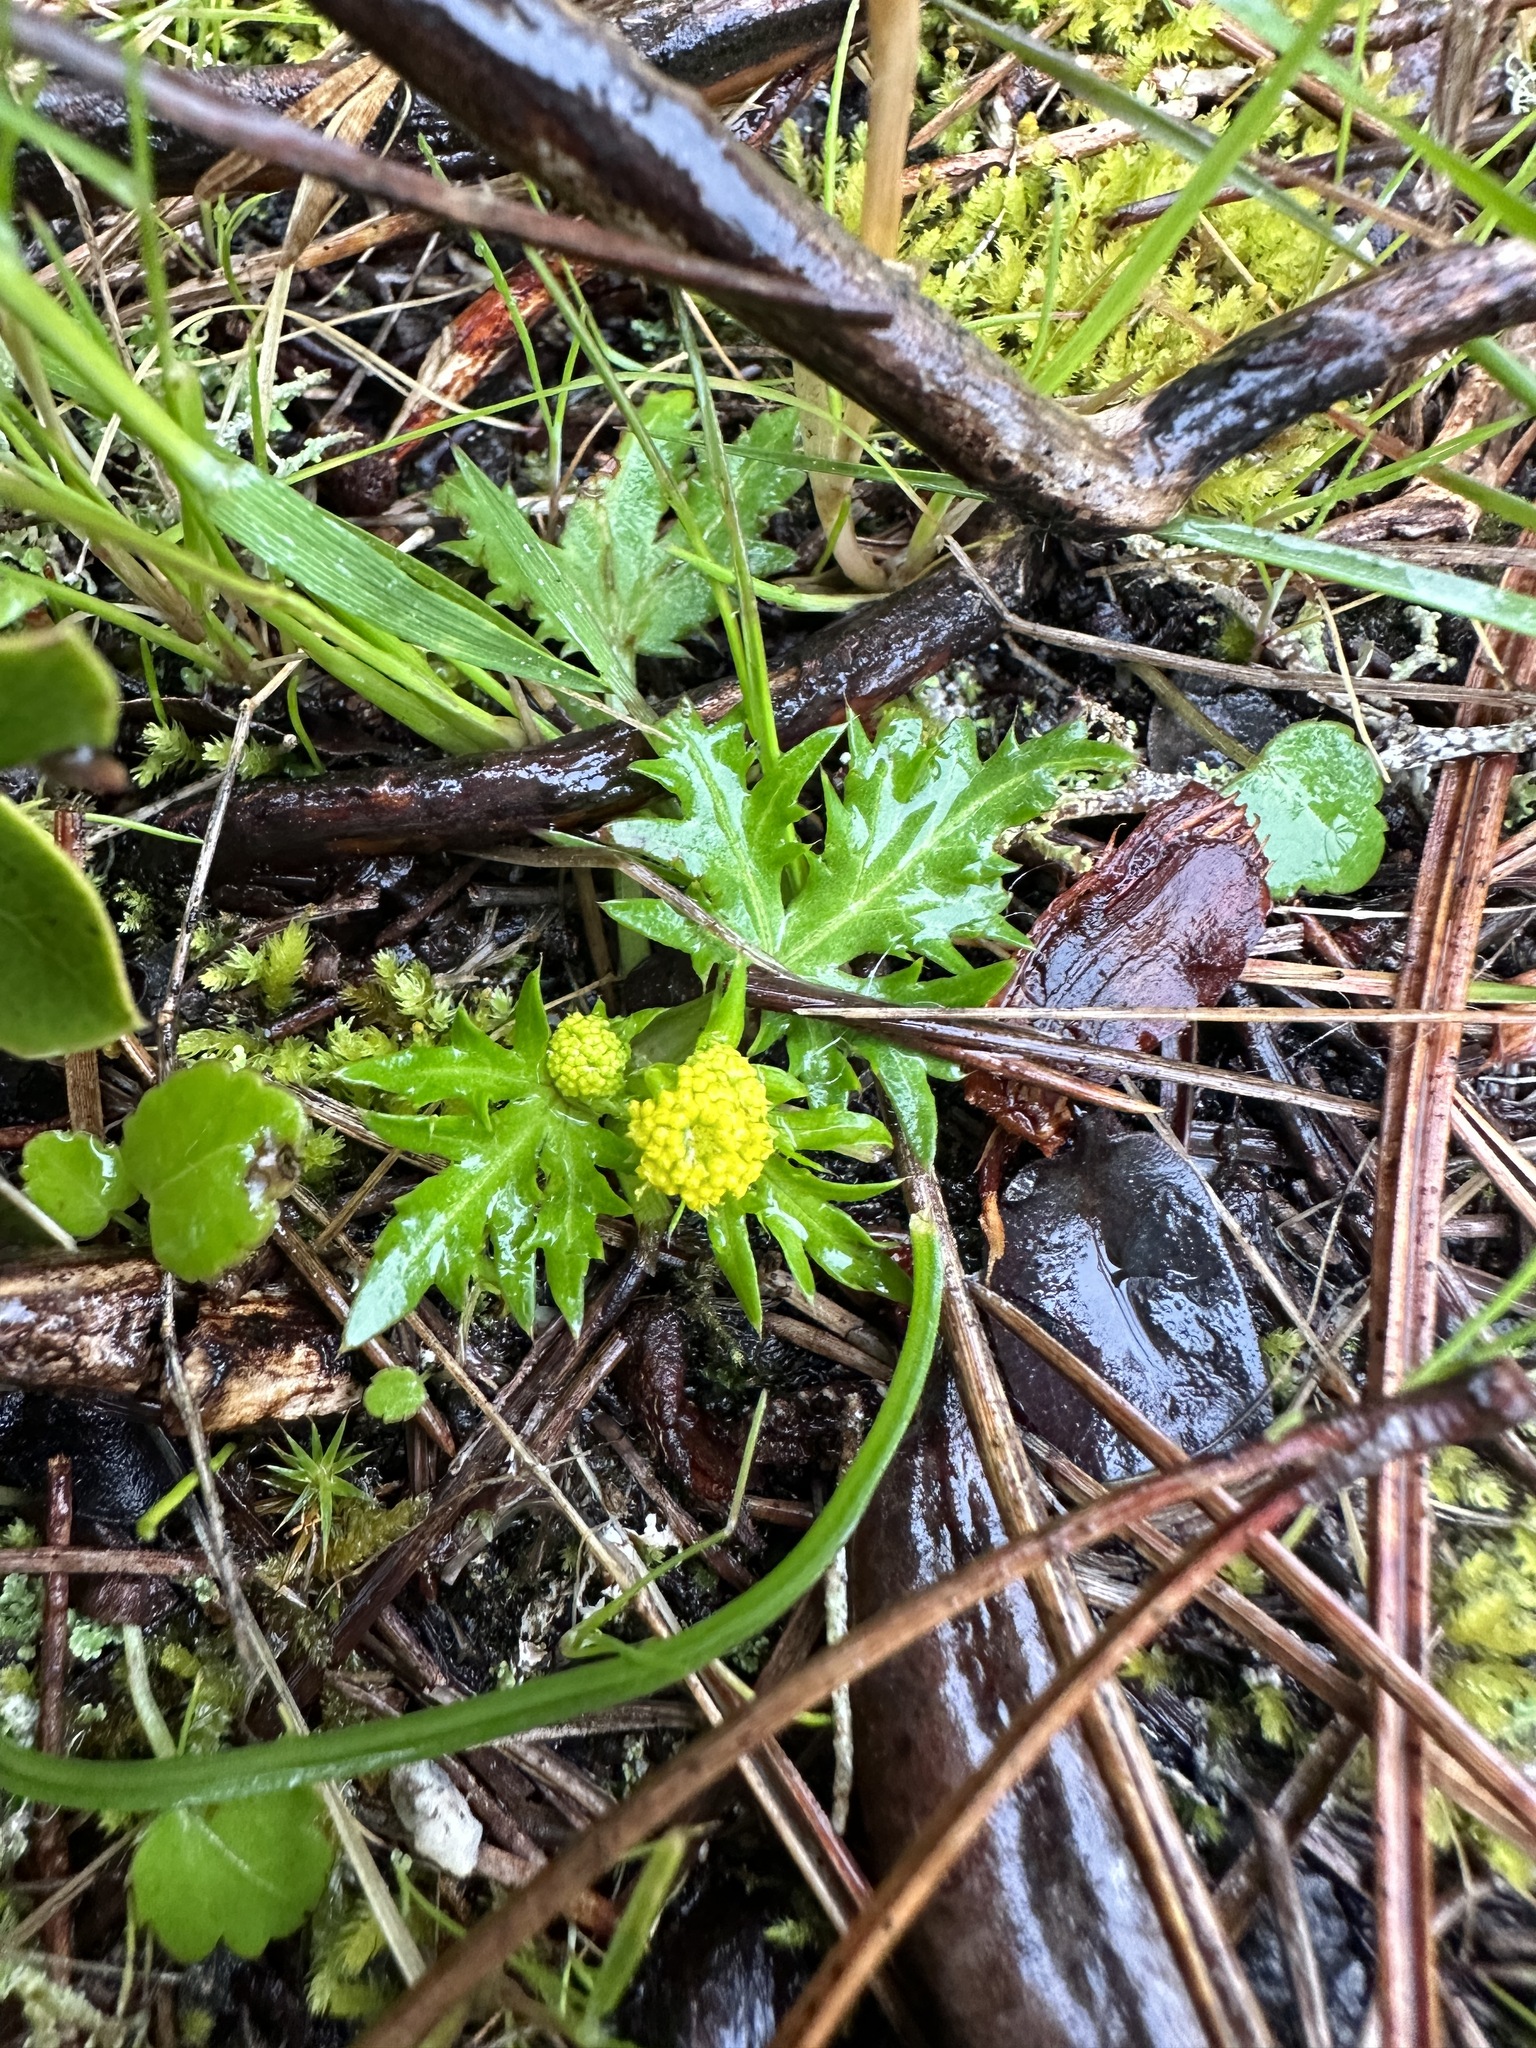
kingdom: Plantae
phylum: Tracheophyta
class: Magnoliopsida
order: Apiales
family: Apiaceae
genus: Sanicula
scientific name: Sanicula laciniata
